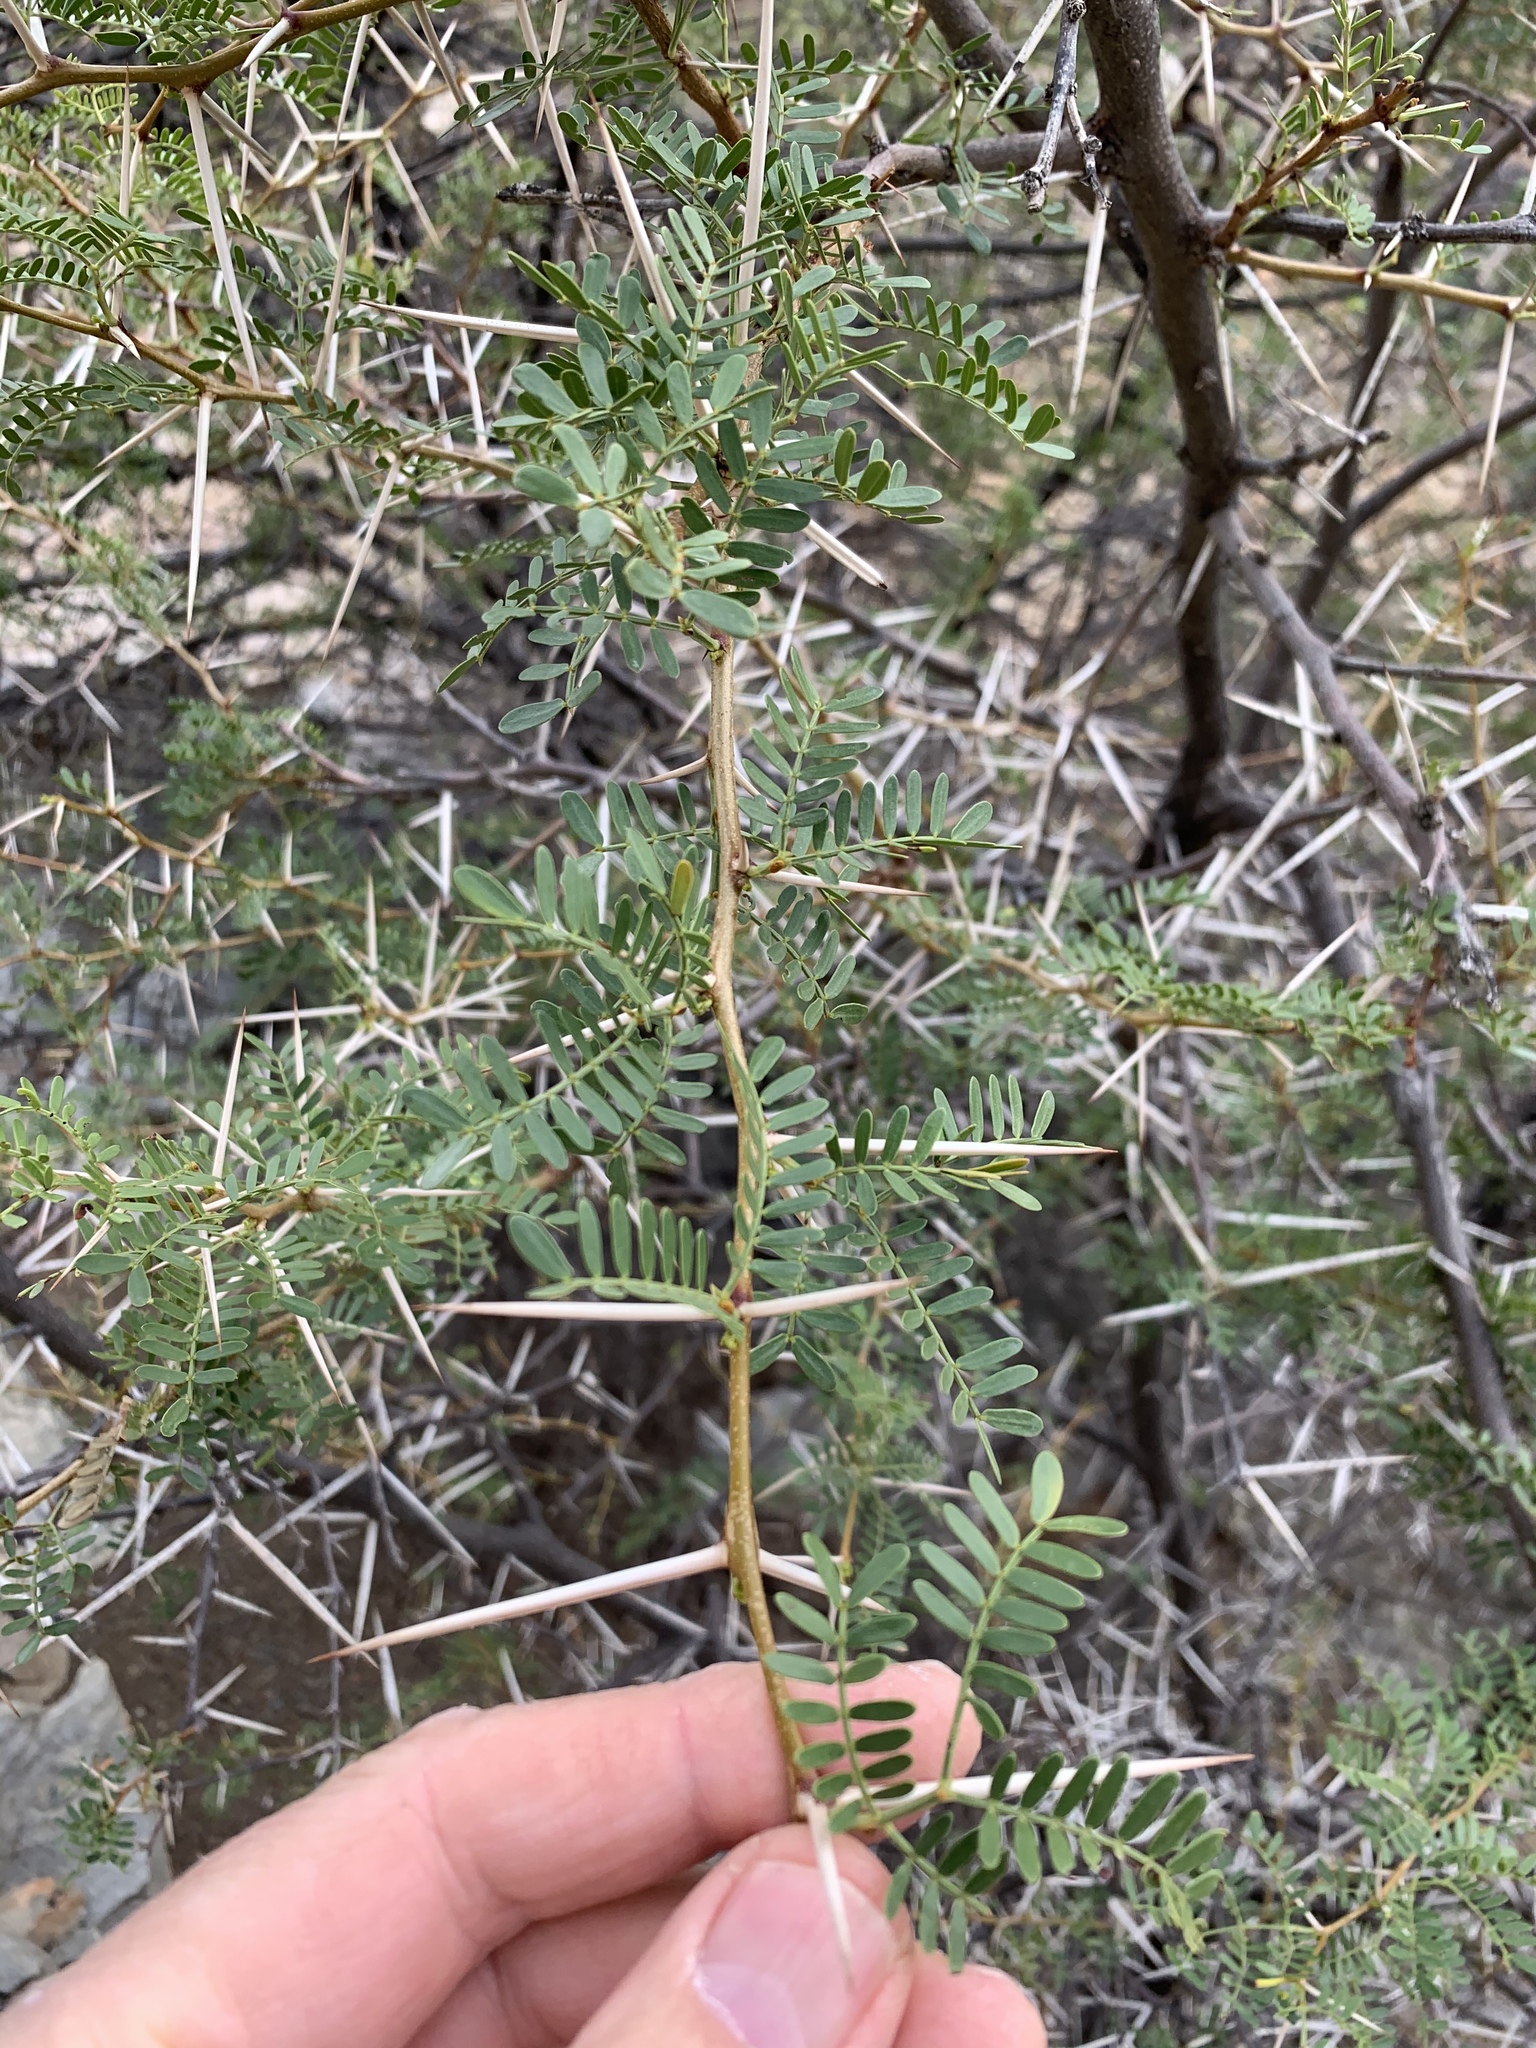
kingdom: Plantae
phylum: Tracheophyta
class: Magnoliopsida
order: Fabales
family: Fabaceae
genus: Vachellia
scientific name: Vachellia karroo
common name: Sweet thorn
